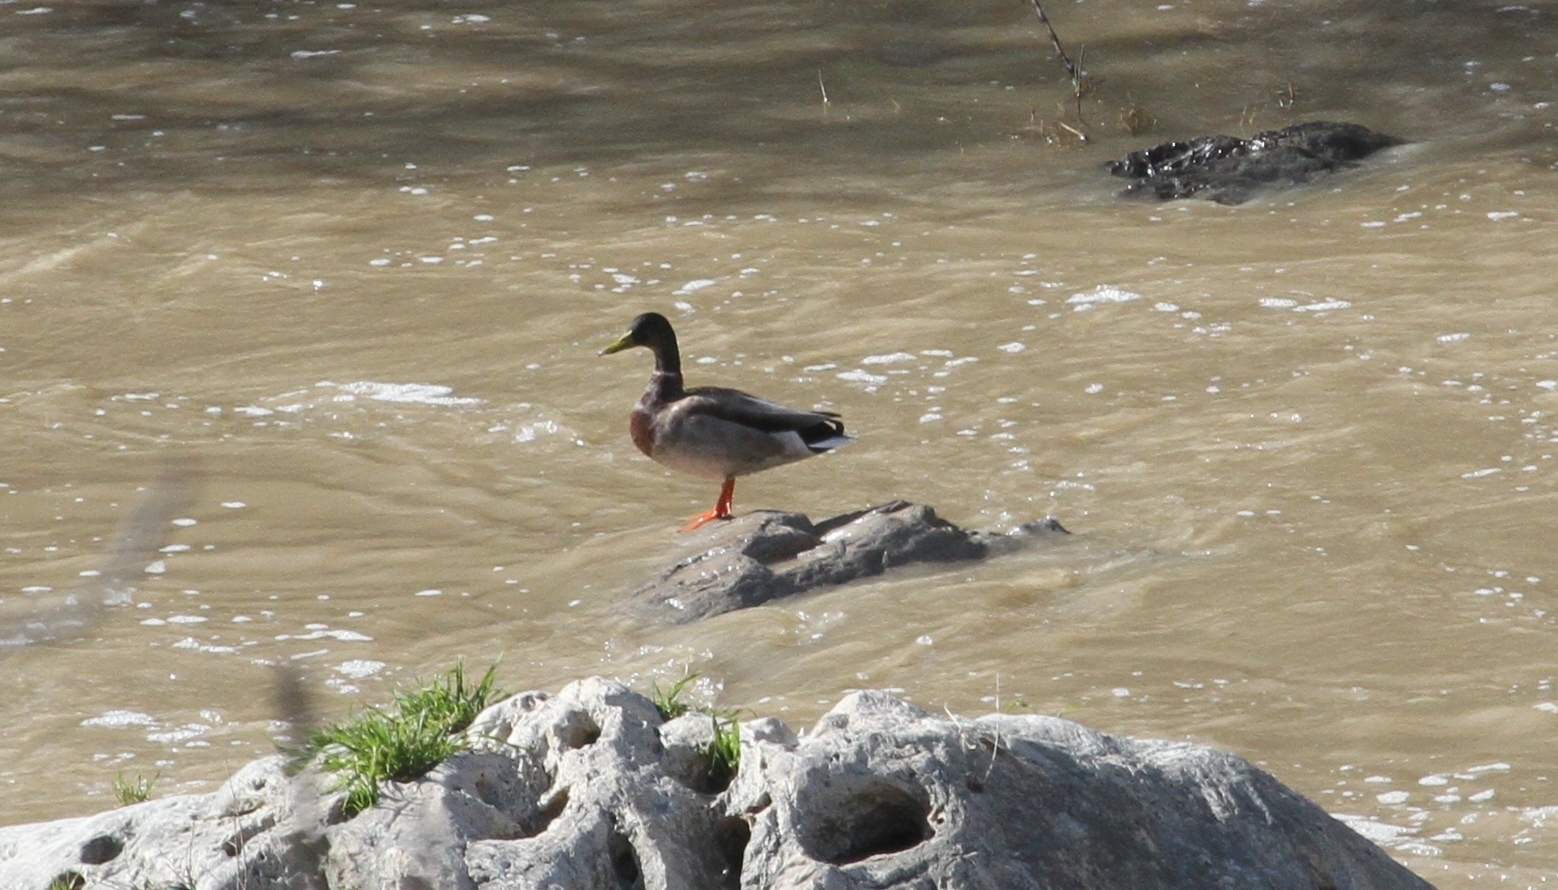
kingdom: Animalia
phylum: Chordata
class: Aves
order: Anseriformes
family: Anatidae
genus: Anas
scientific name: Anas platyrhynchos
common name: Mallard
